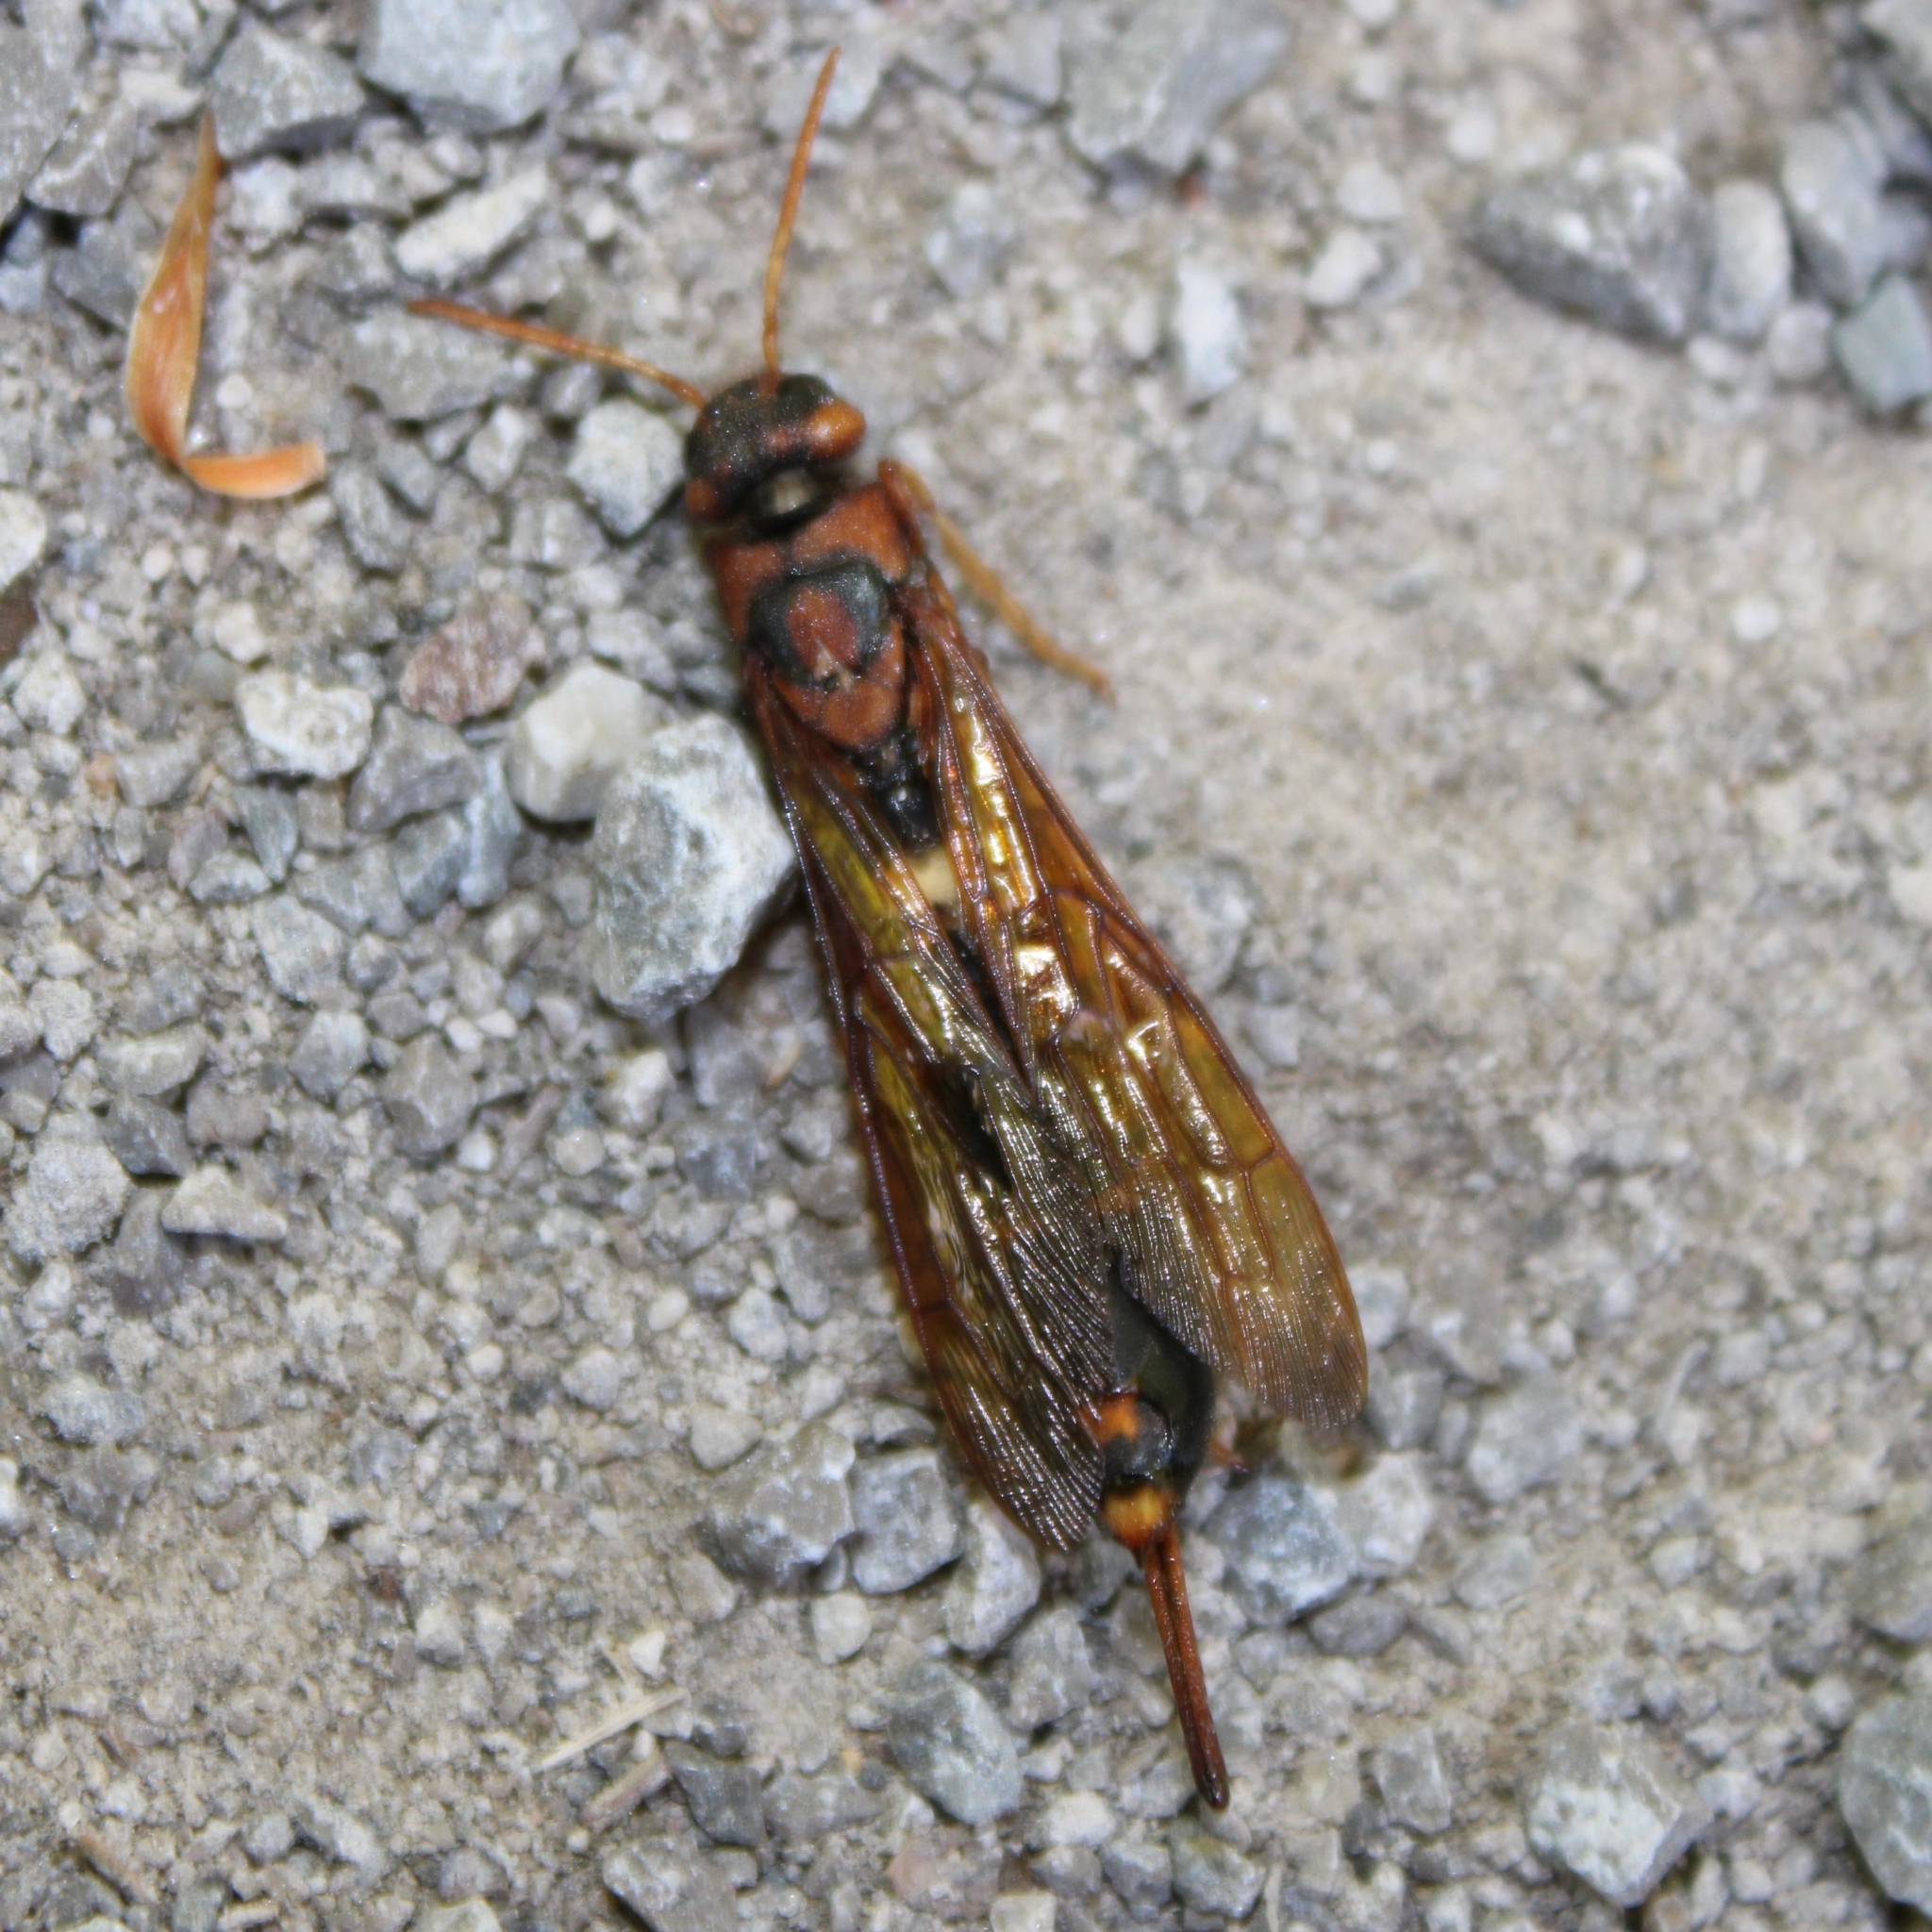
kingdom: Animalia
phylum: Arthropoda
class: Insecta
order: Hymenoptera
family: Siricidae
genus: Tremex
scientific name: Tremex columba
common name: Wasp
